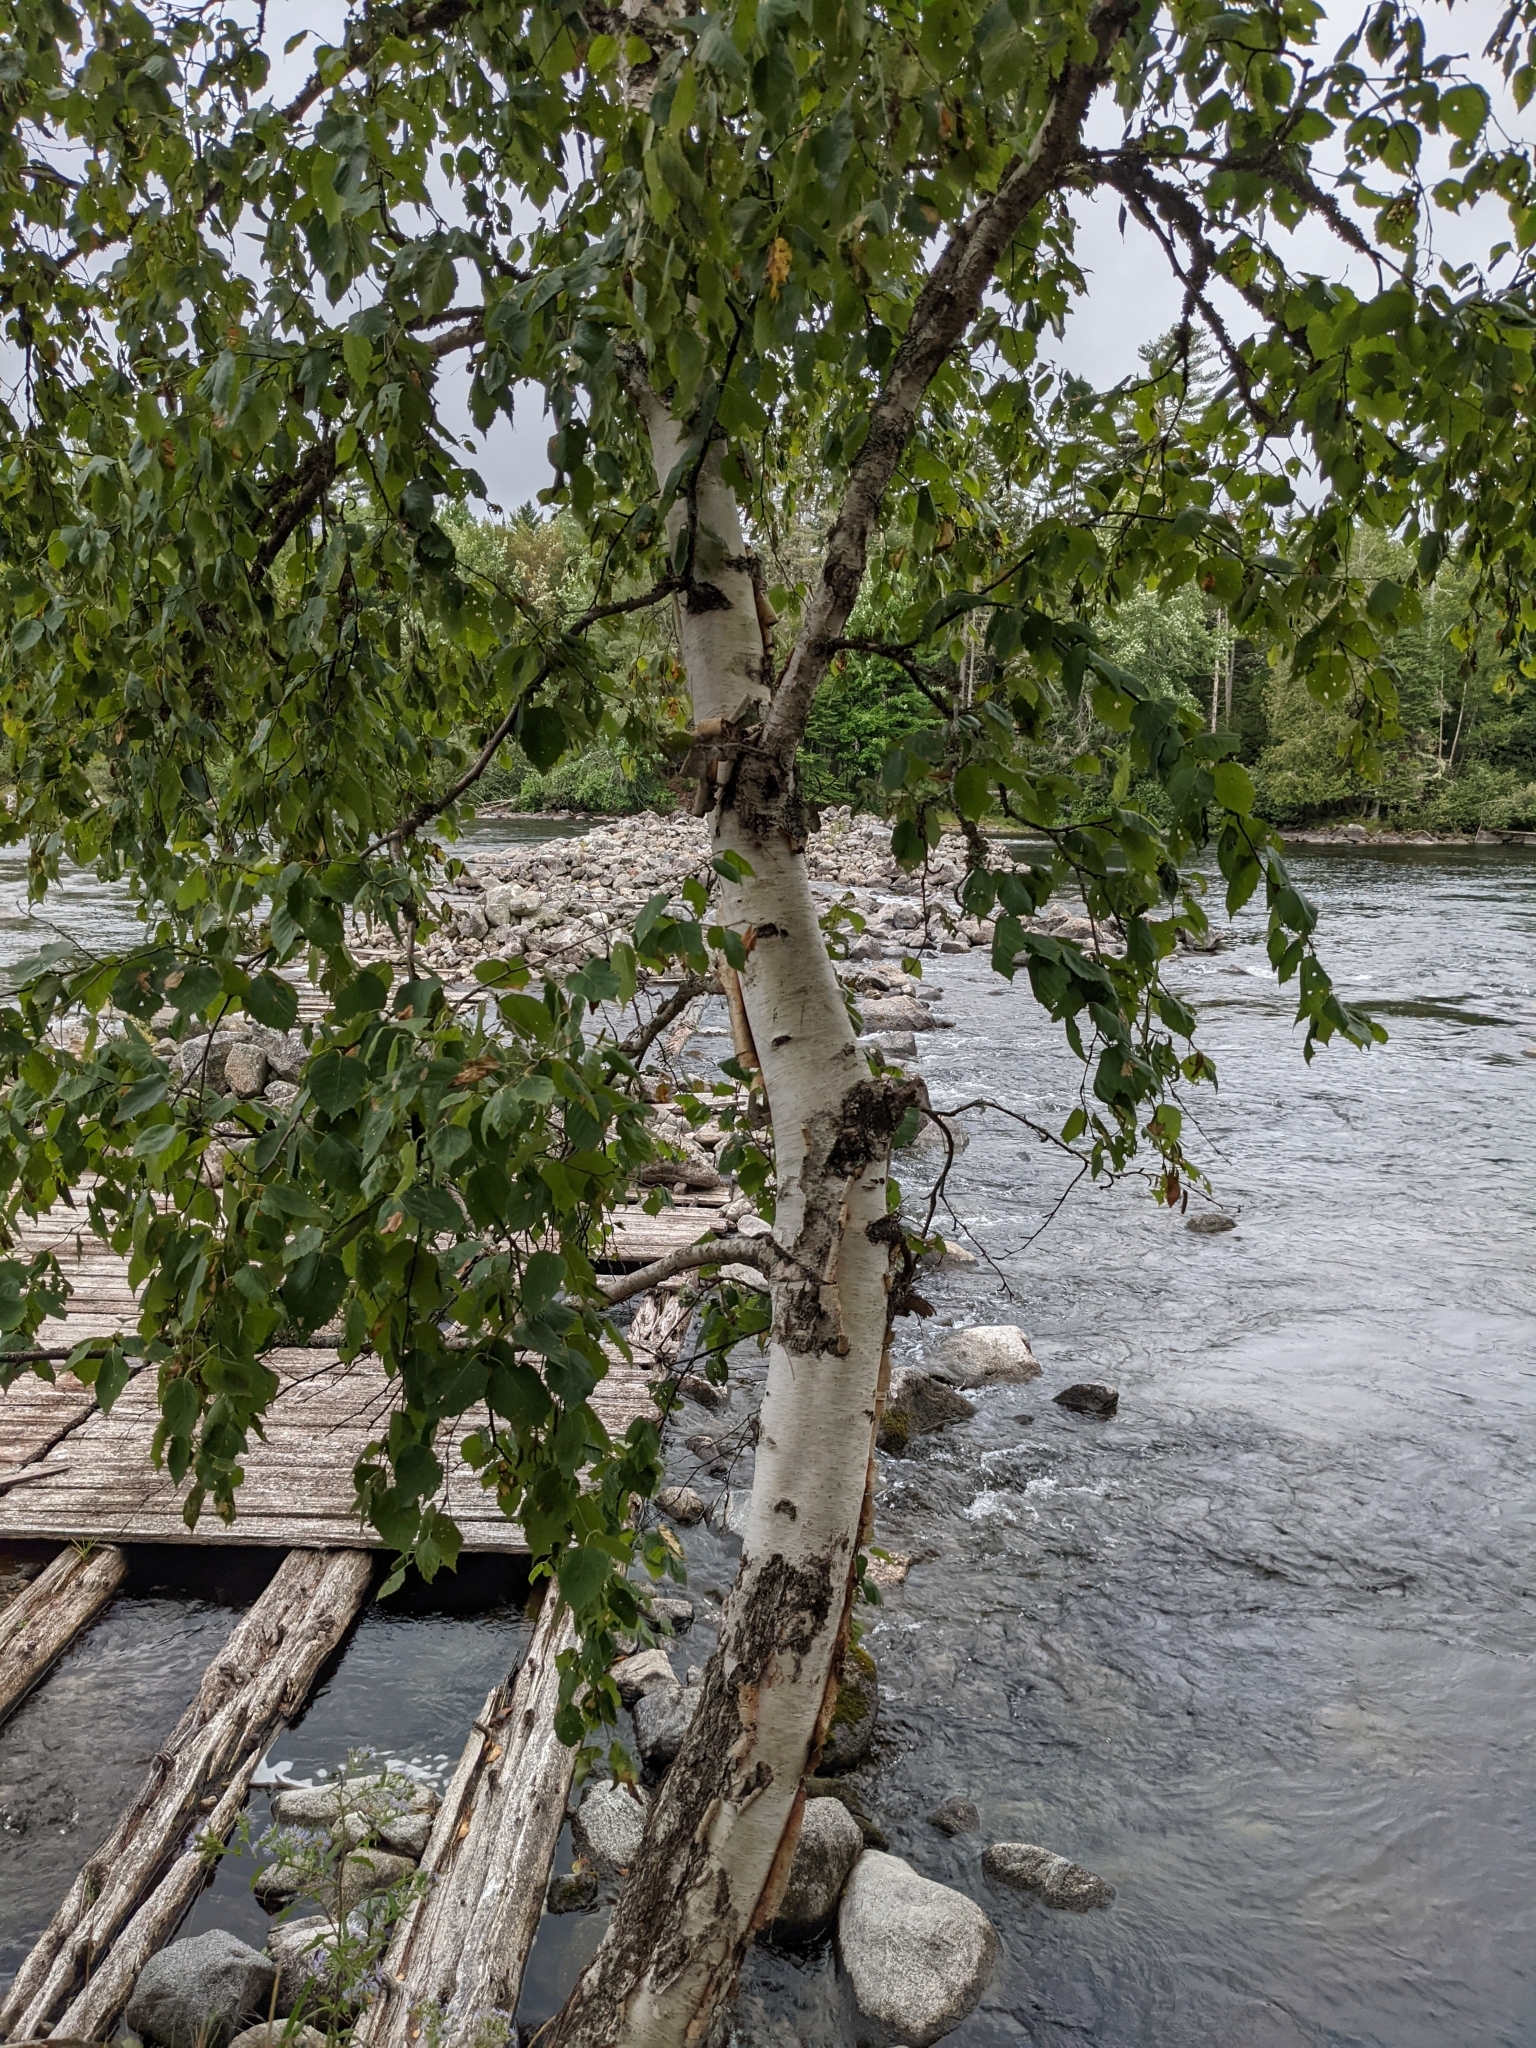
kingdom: Plantae
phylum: Tracheophyta
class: Magnoliopsida
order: Fagales
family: Betulaceae
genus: Betula
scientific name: Betula papyrifera
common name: Paper birch
